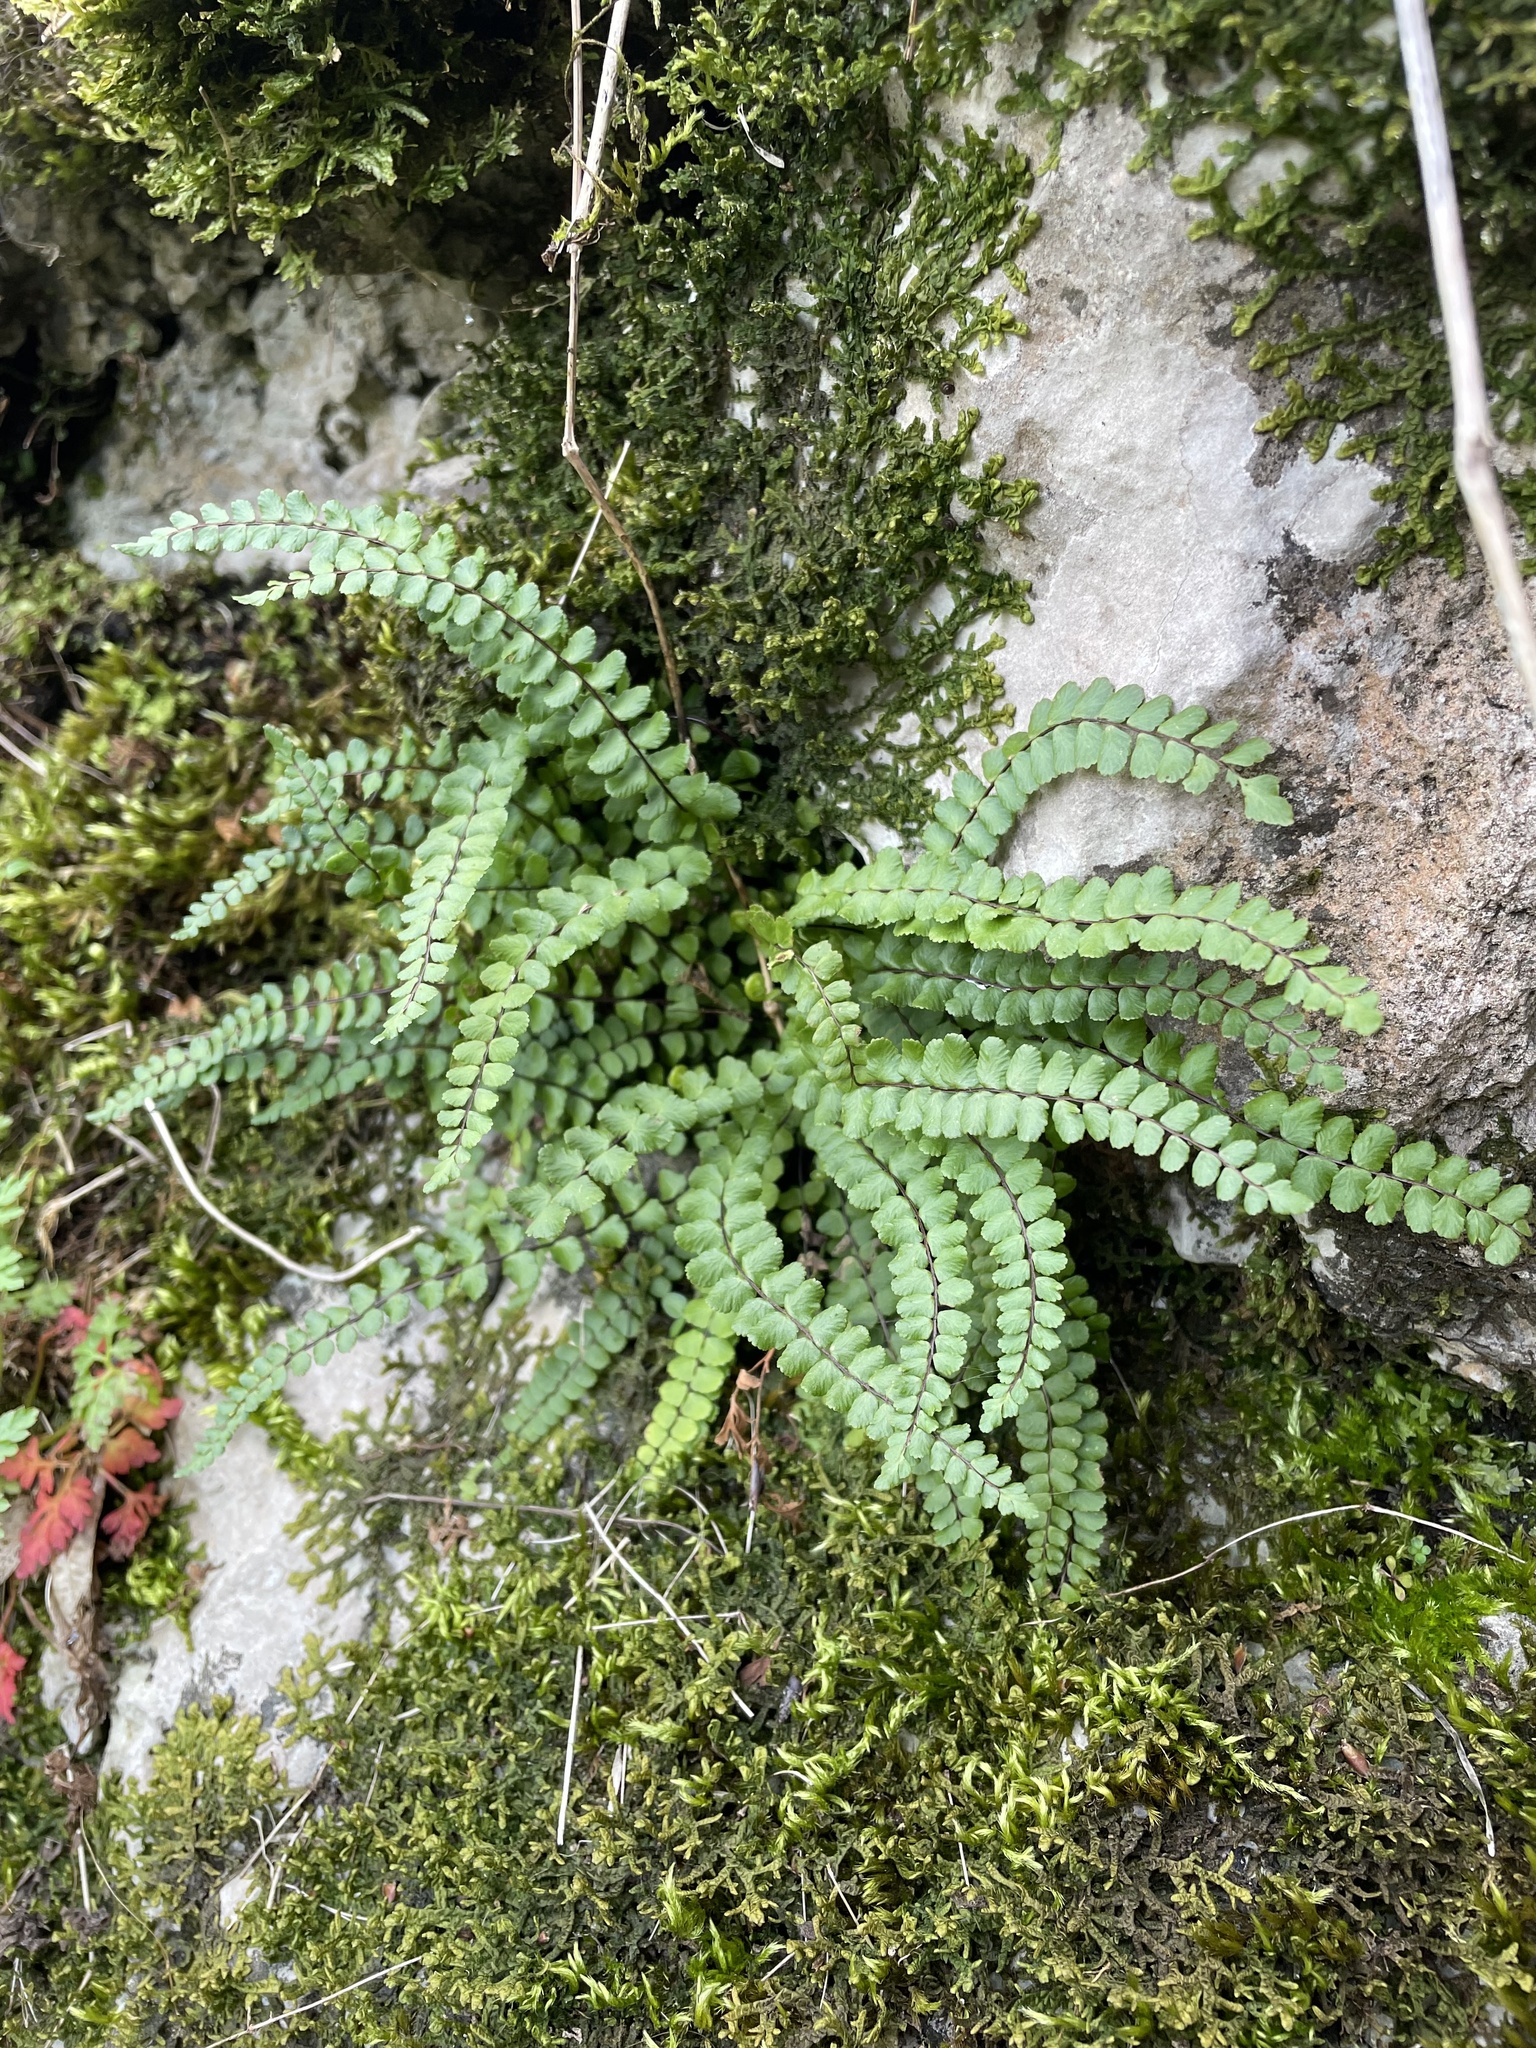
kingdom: Plantae
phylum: Tracheophyta
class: Polypodiopsida
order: Polypodiales
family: Aspleniaceae
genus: Asplenium
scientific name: Asplenium trichomanes
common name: Maidenhair spleenwort
